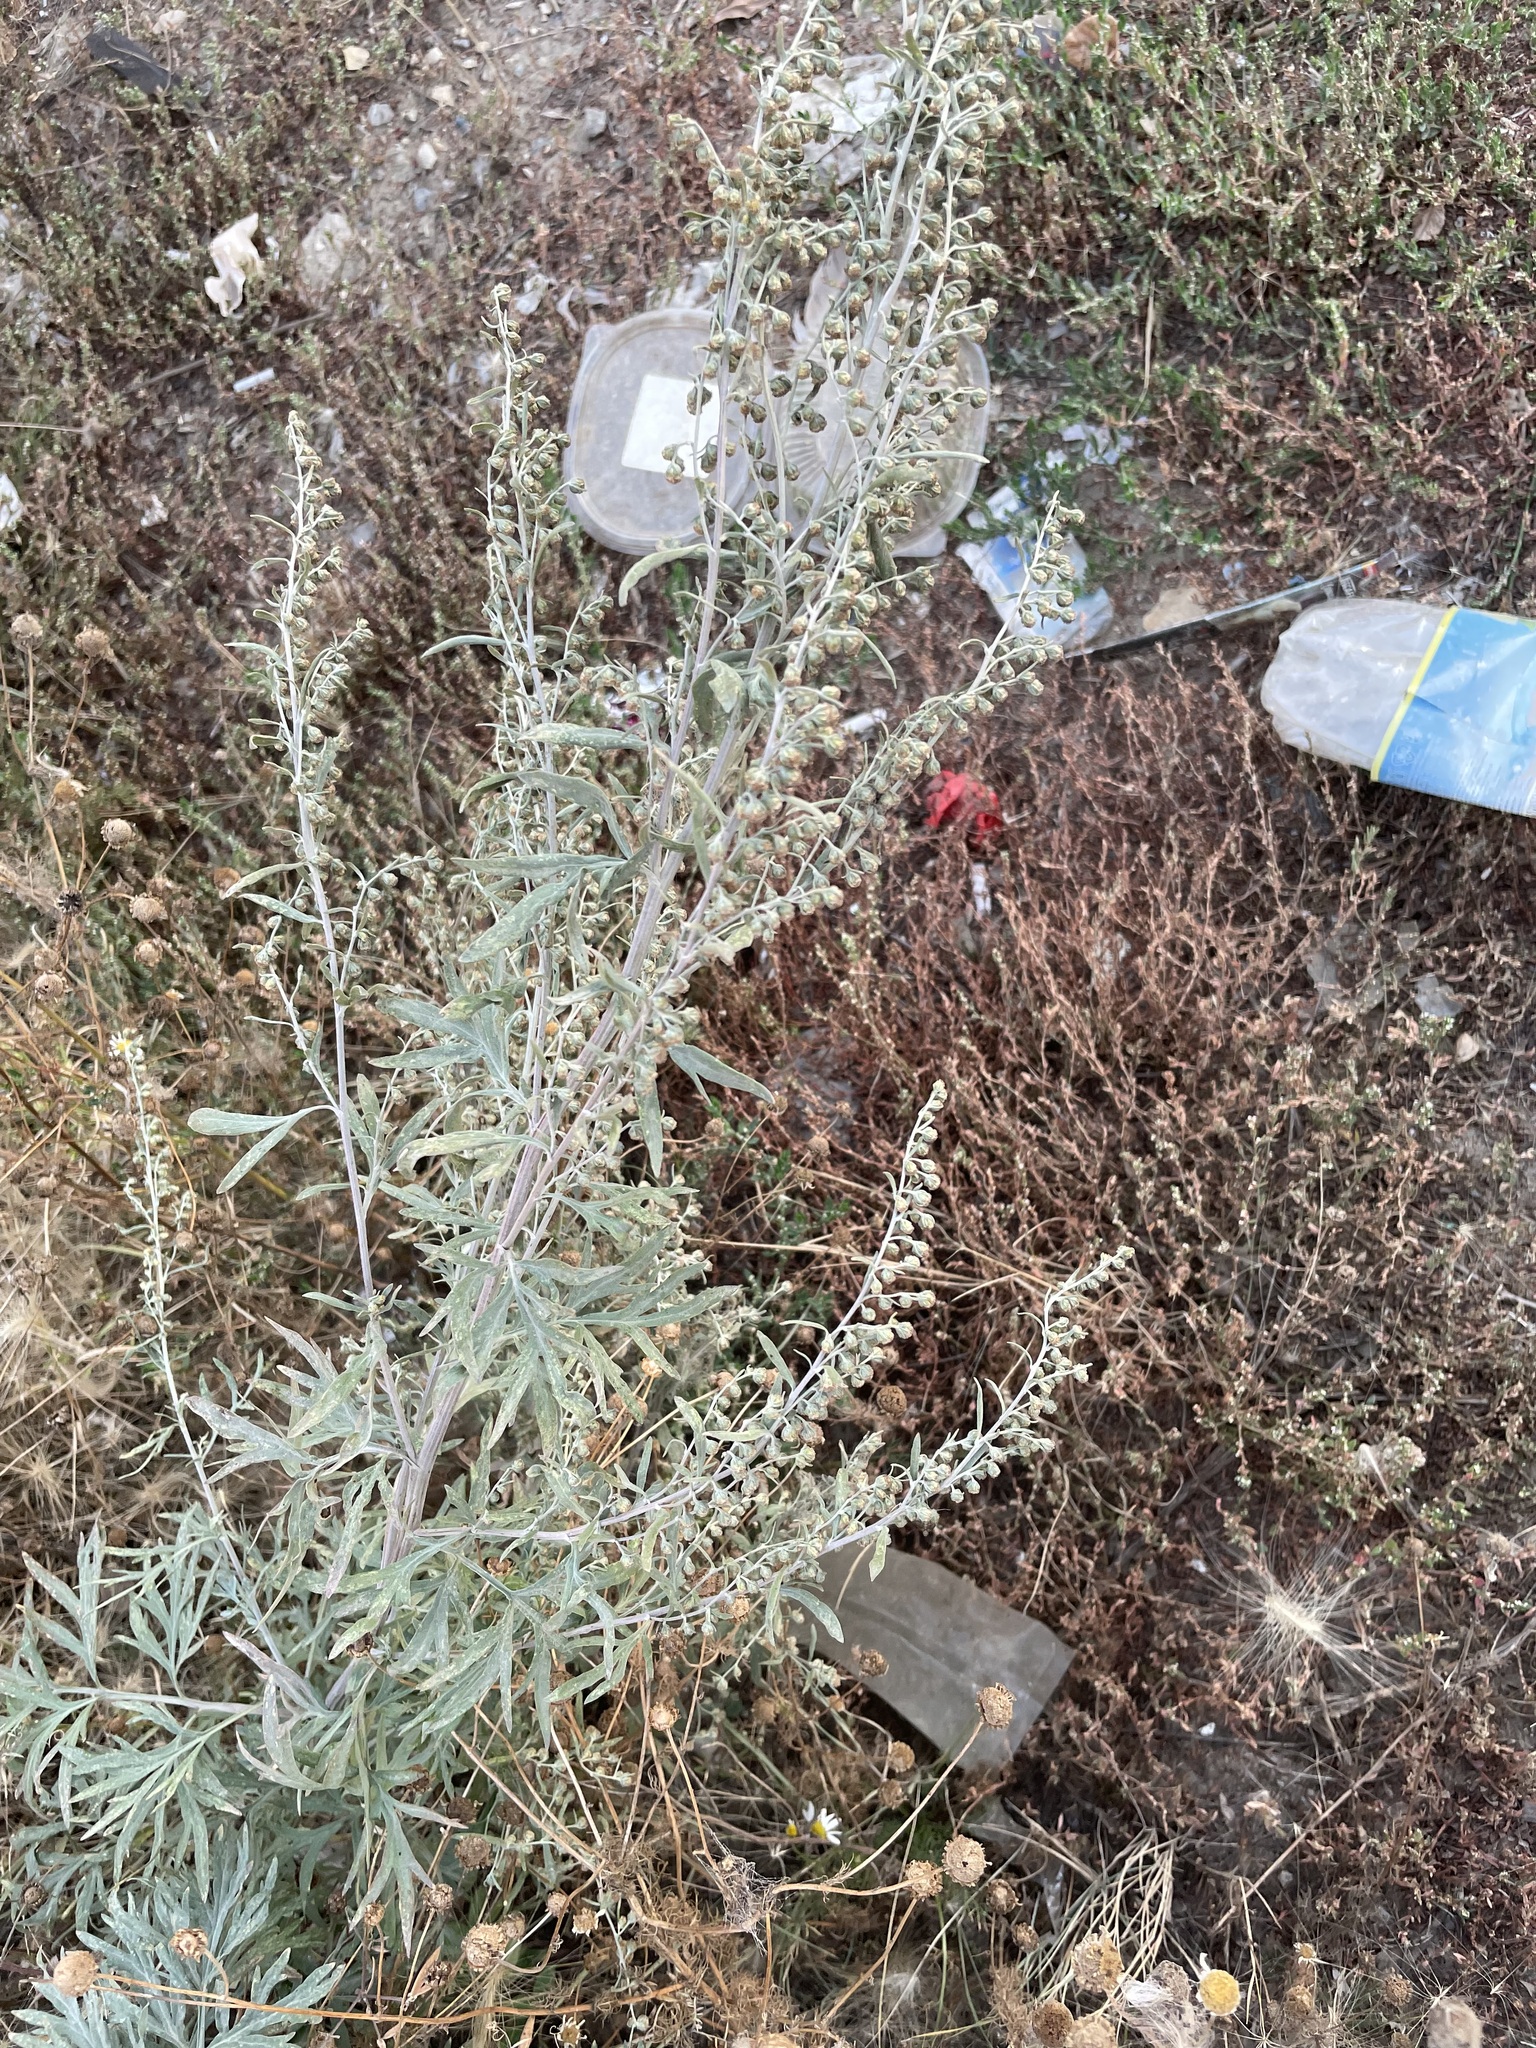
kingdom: Plantae
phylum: Tracheophyta
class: Magnoliopsida
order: Asterales
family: Asteraceae
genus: Artemisia
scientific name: Artemisia sieversiana
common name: Sieversian wormwood
